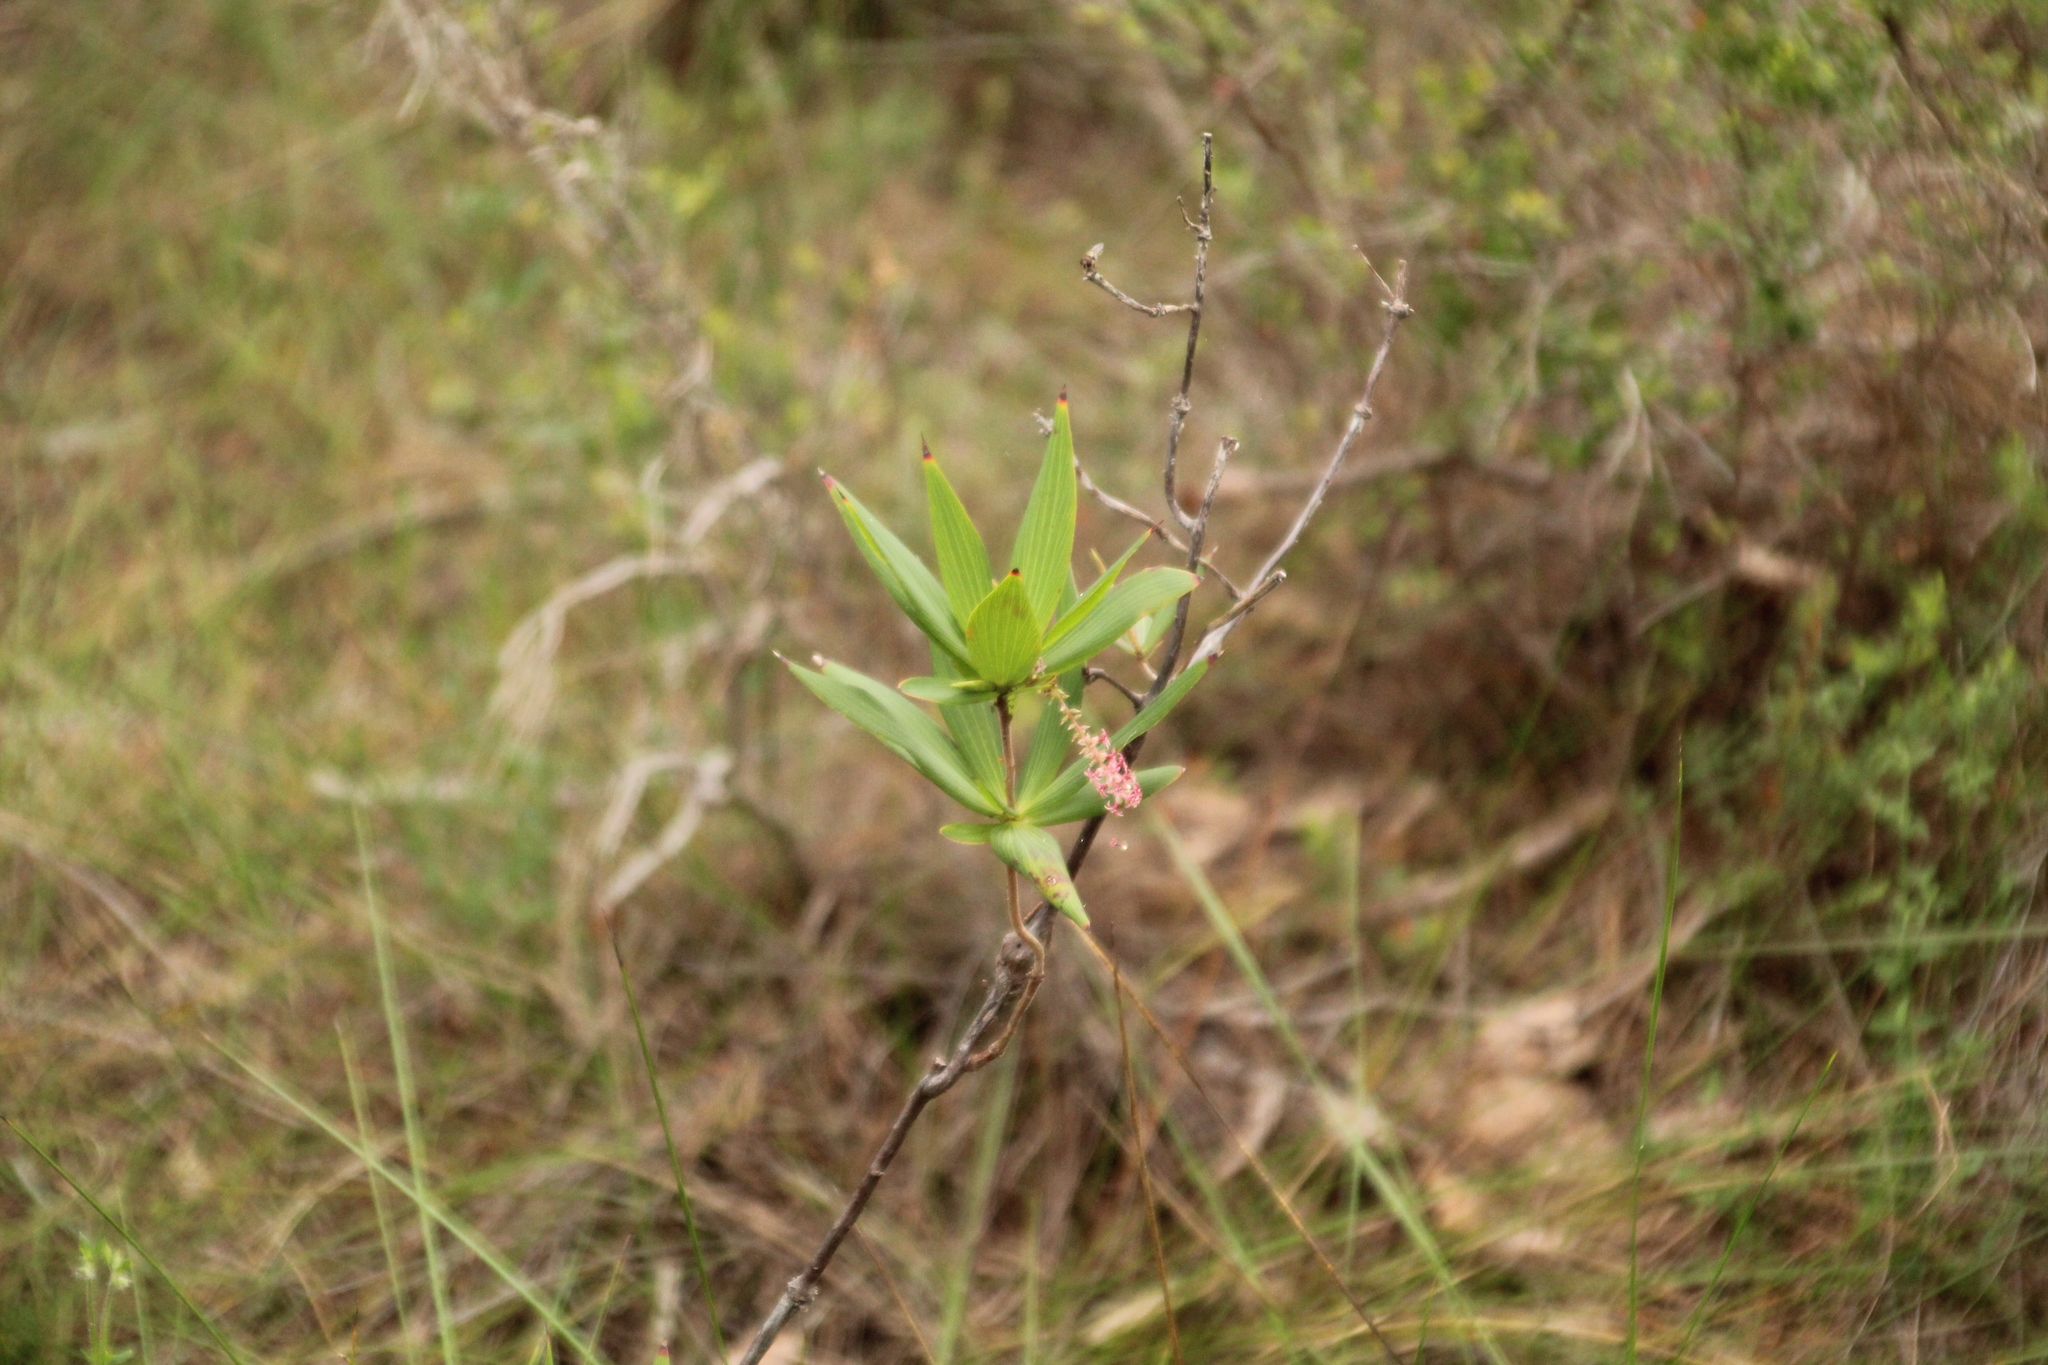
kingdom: Plantae
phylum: Tracheophyta
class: Magnoliopsida
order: Ericales
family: Ericaceae
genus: Leucopogon
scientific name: Leucopogon verticillatus
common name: Tasselshrub
